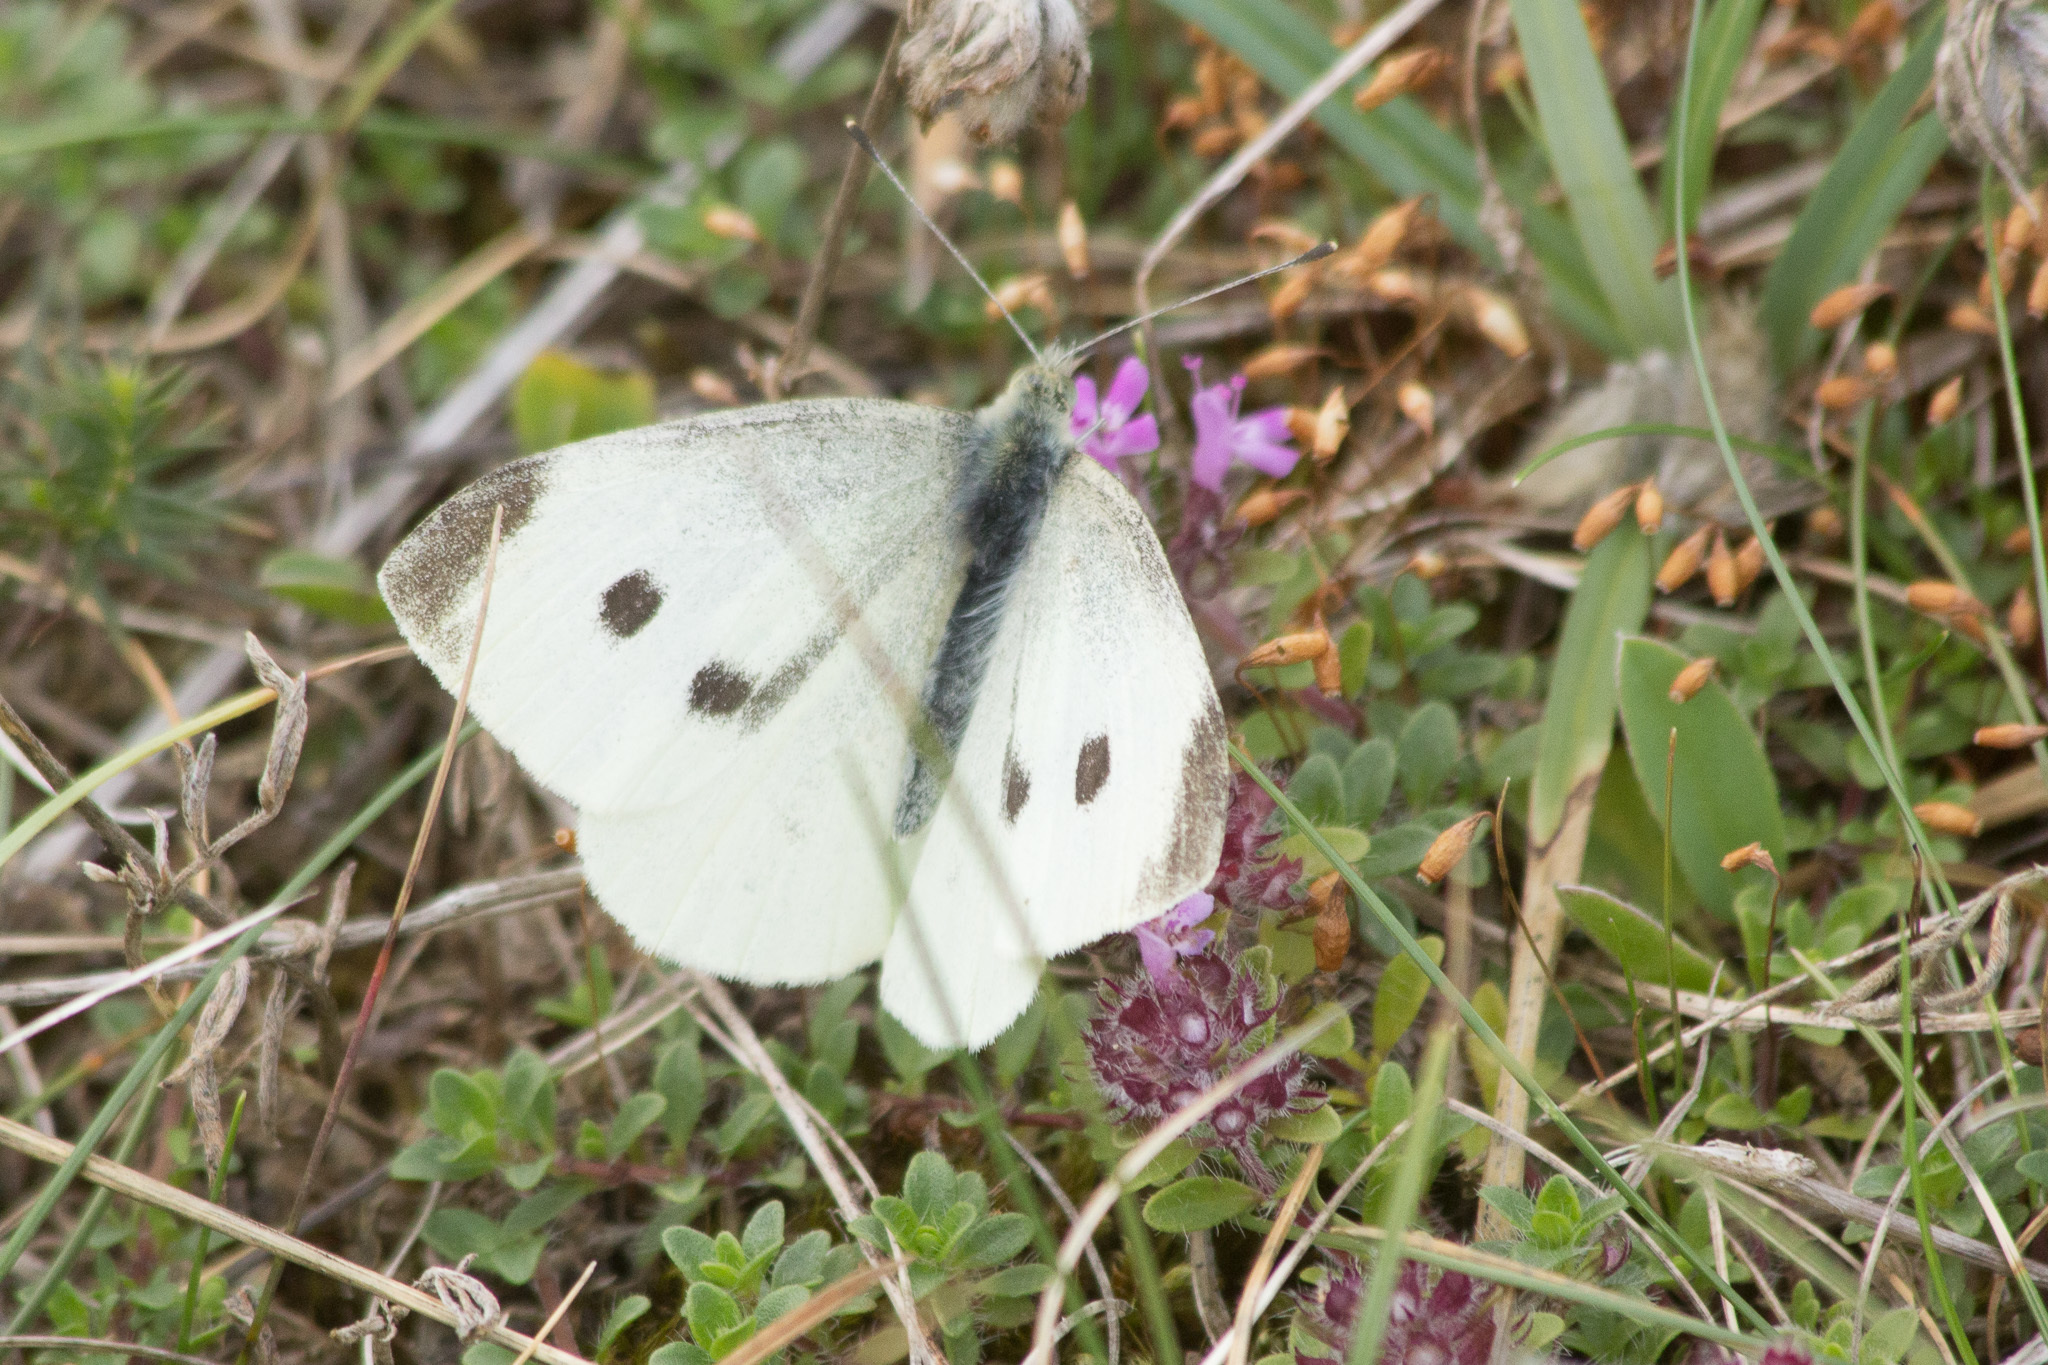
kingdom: Animalia
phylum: Arthropoda
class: Insecta
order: Lepidoptera
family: Pieridae
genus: Pieris
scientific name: Pieris rapae
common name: Small white
